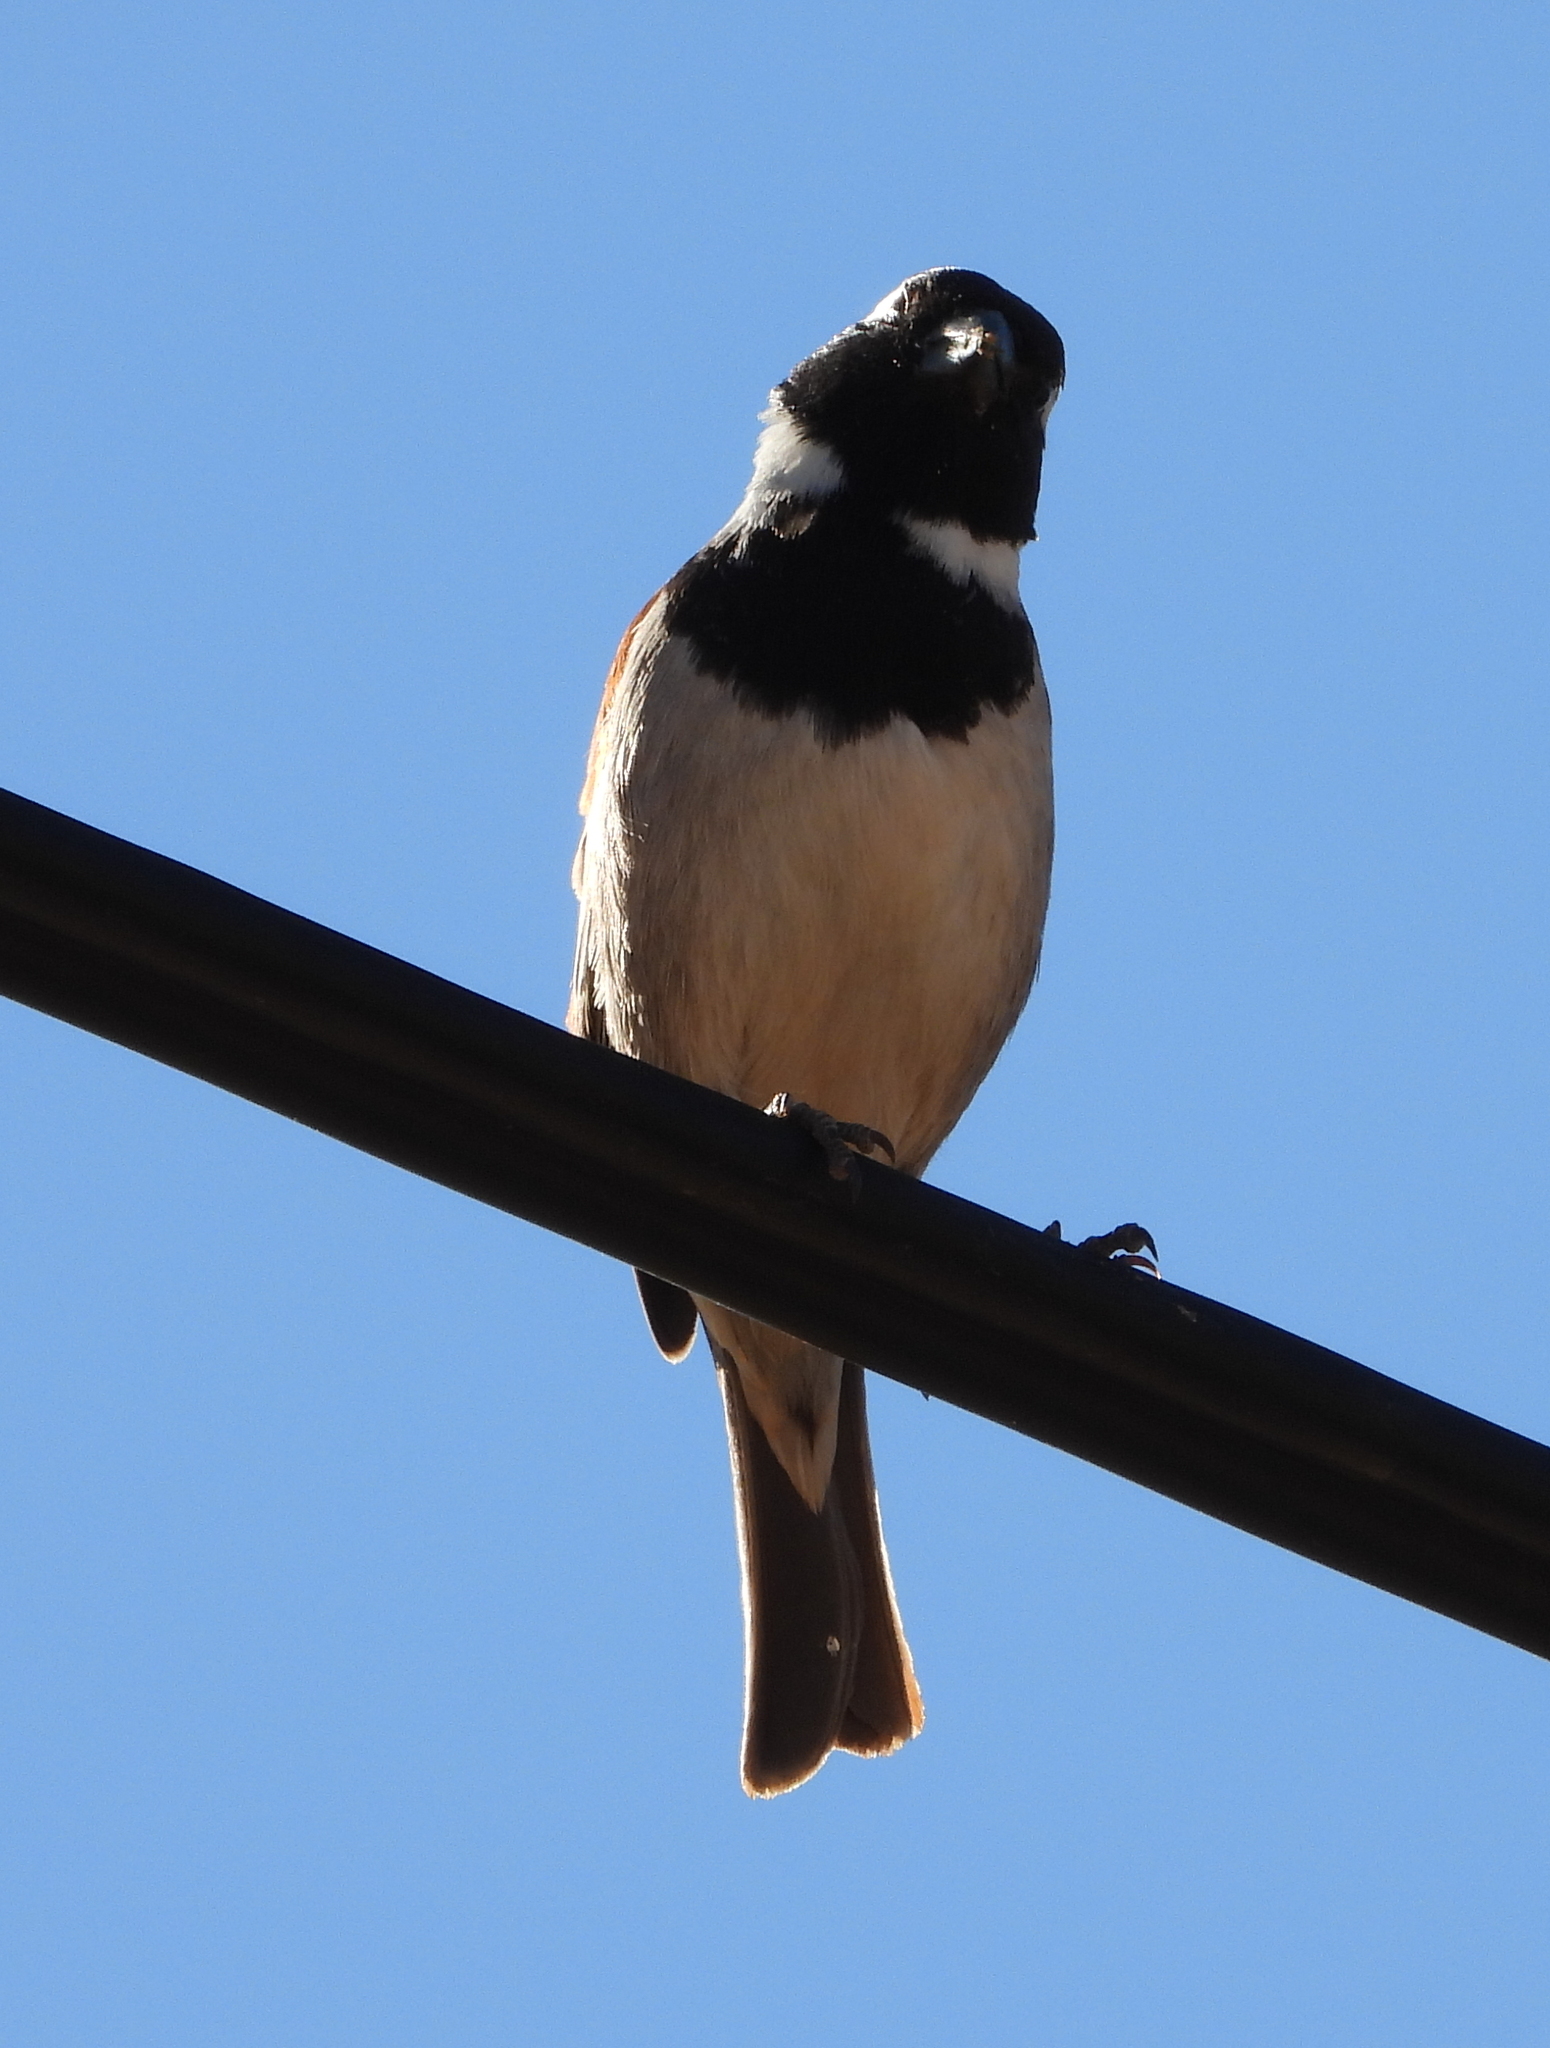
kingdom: Animalia
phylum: Chordata
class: Aves
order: Passeriformes
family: Passeridae
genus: Passer
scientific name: Passer melanurus
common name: Cape sparrow
